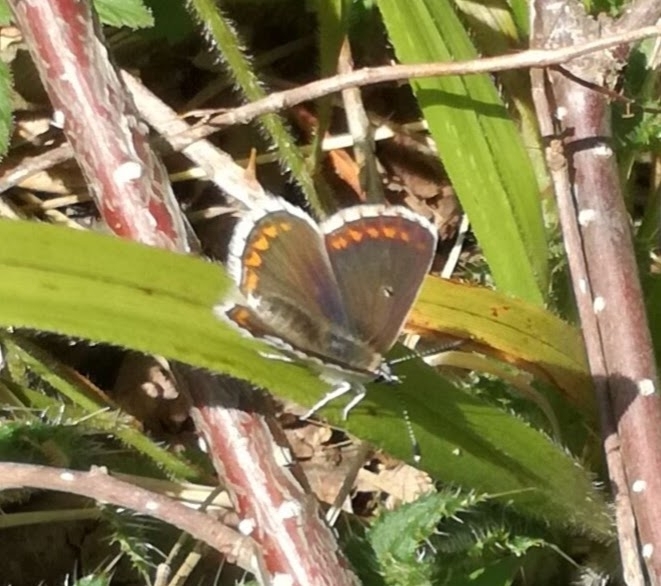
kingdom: Animalia
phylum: Arthropoda
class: Insecta
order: Lepidoptera
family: Lycaenidae
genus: Aricia
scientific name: Aricia artaxerxes
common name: Northern brown argus
